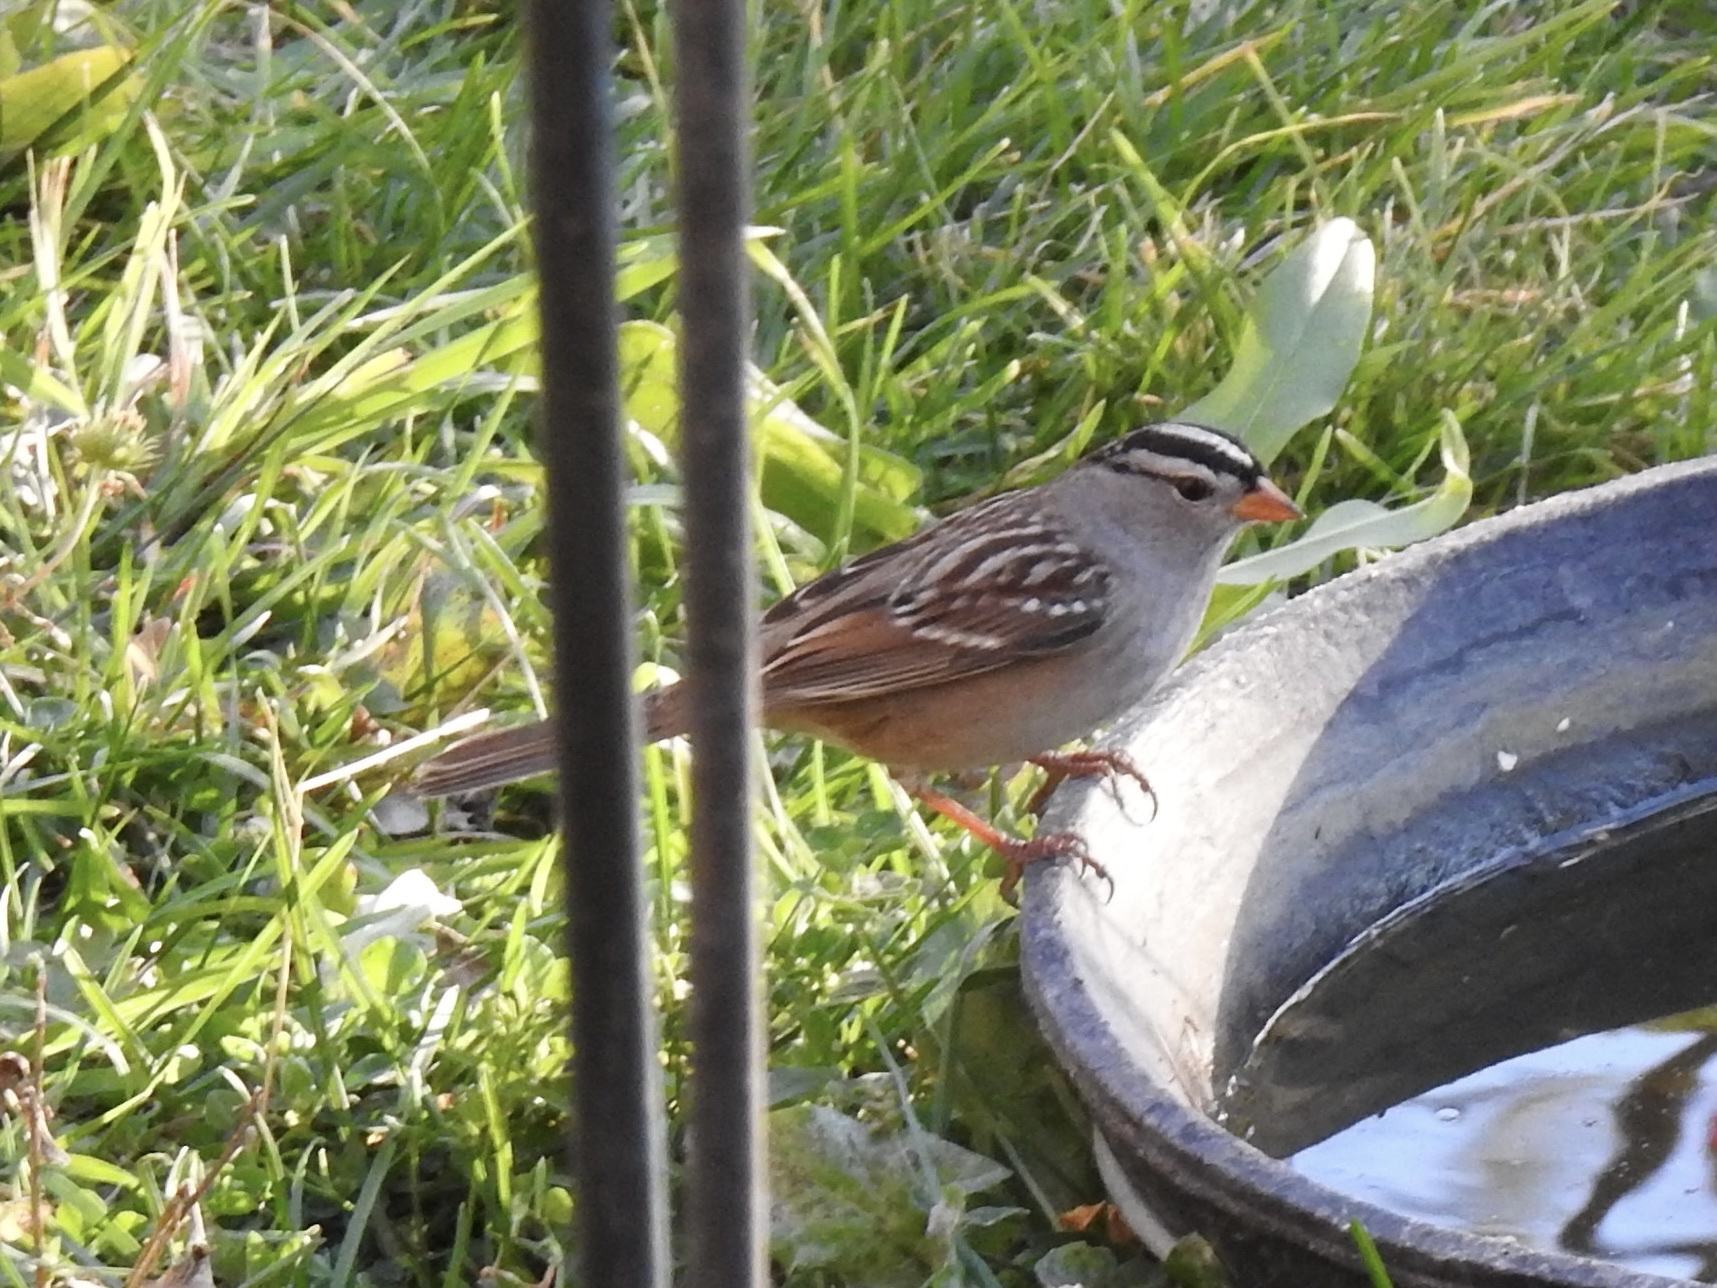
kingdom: Animalia
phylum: Chordata
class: Aves
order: Passeriformes
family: Passerellidae
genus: Zonotrichia
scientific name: Zonotrichia leucophrys
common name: White-crowned sparrow
